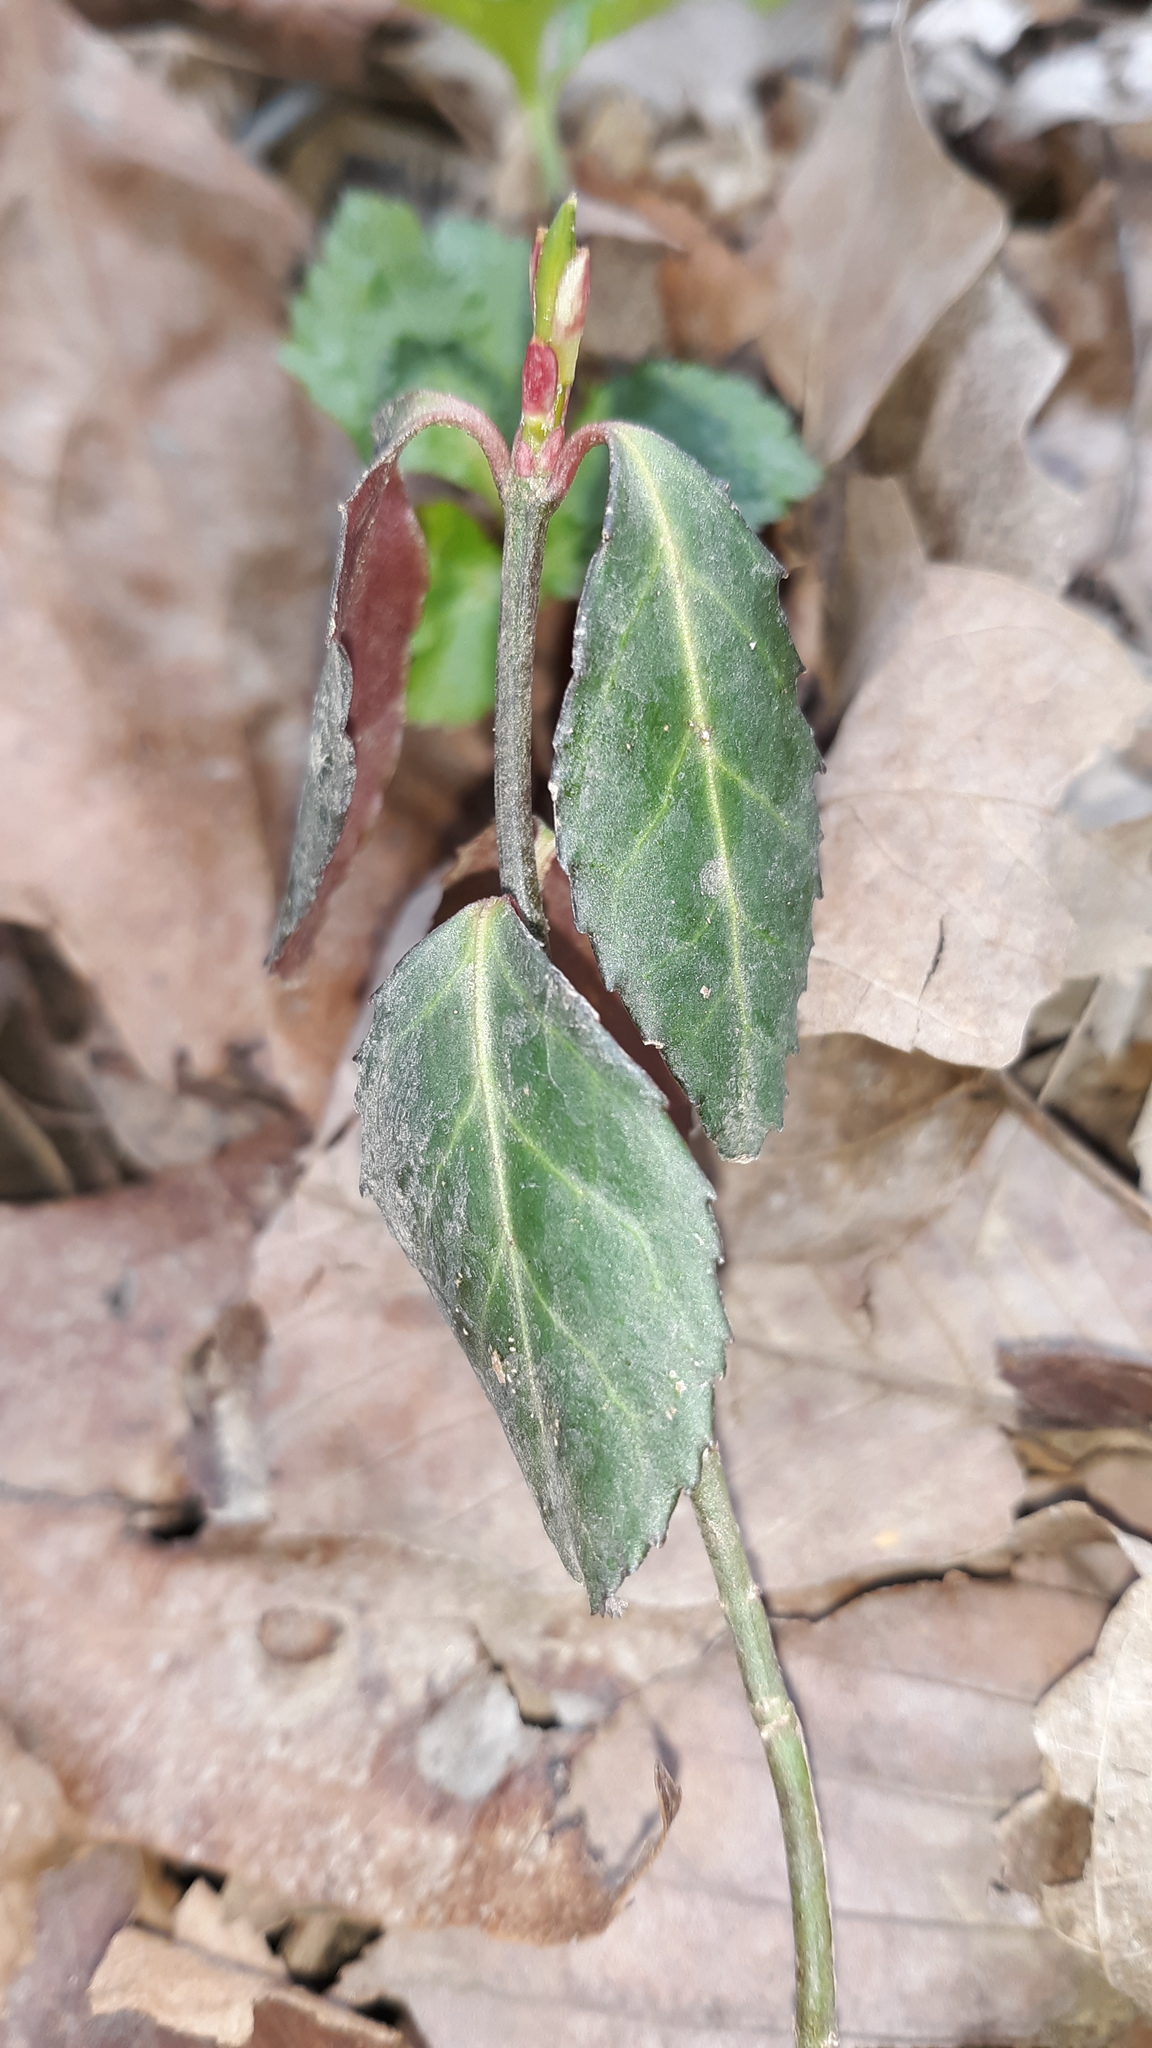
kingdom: Plantae
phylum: Tracheophyta
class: Magnoliopsida
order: Celastrales
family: Celastraceae
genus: Euonymus
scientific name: Euonymus fortunei
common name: Climbing euonymus
